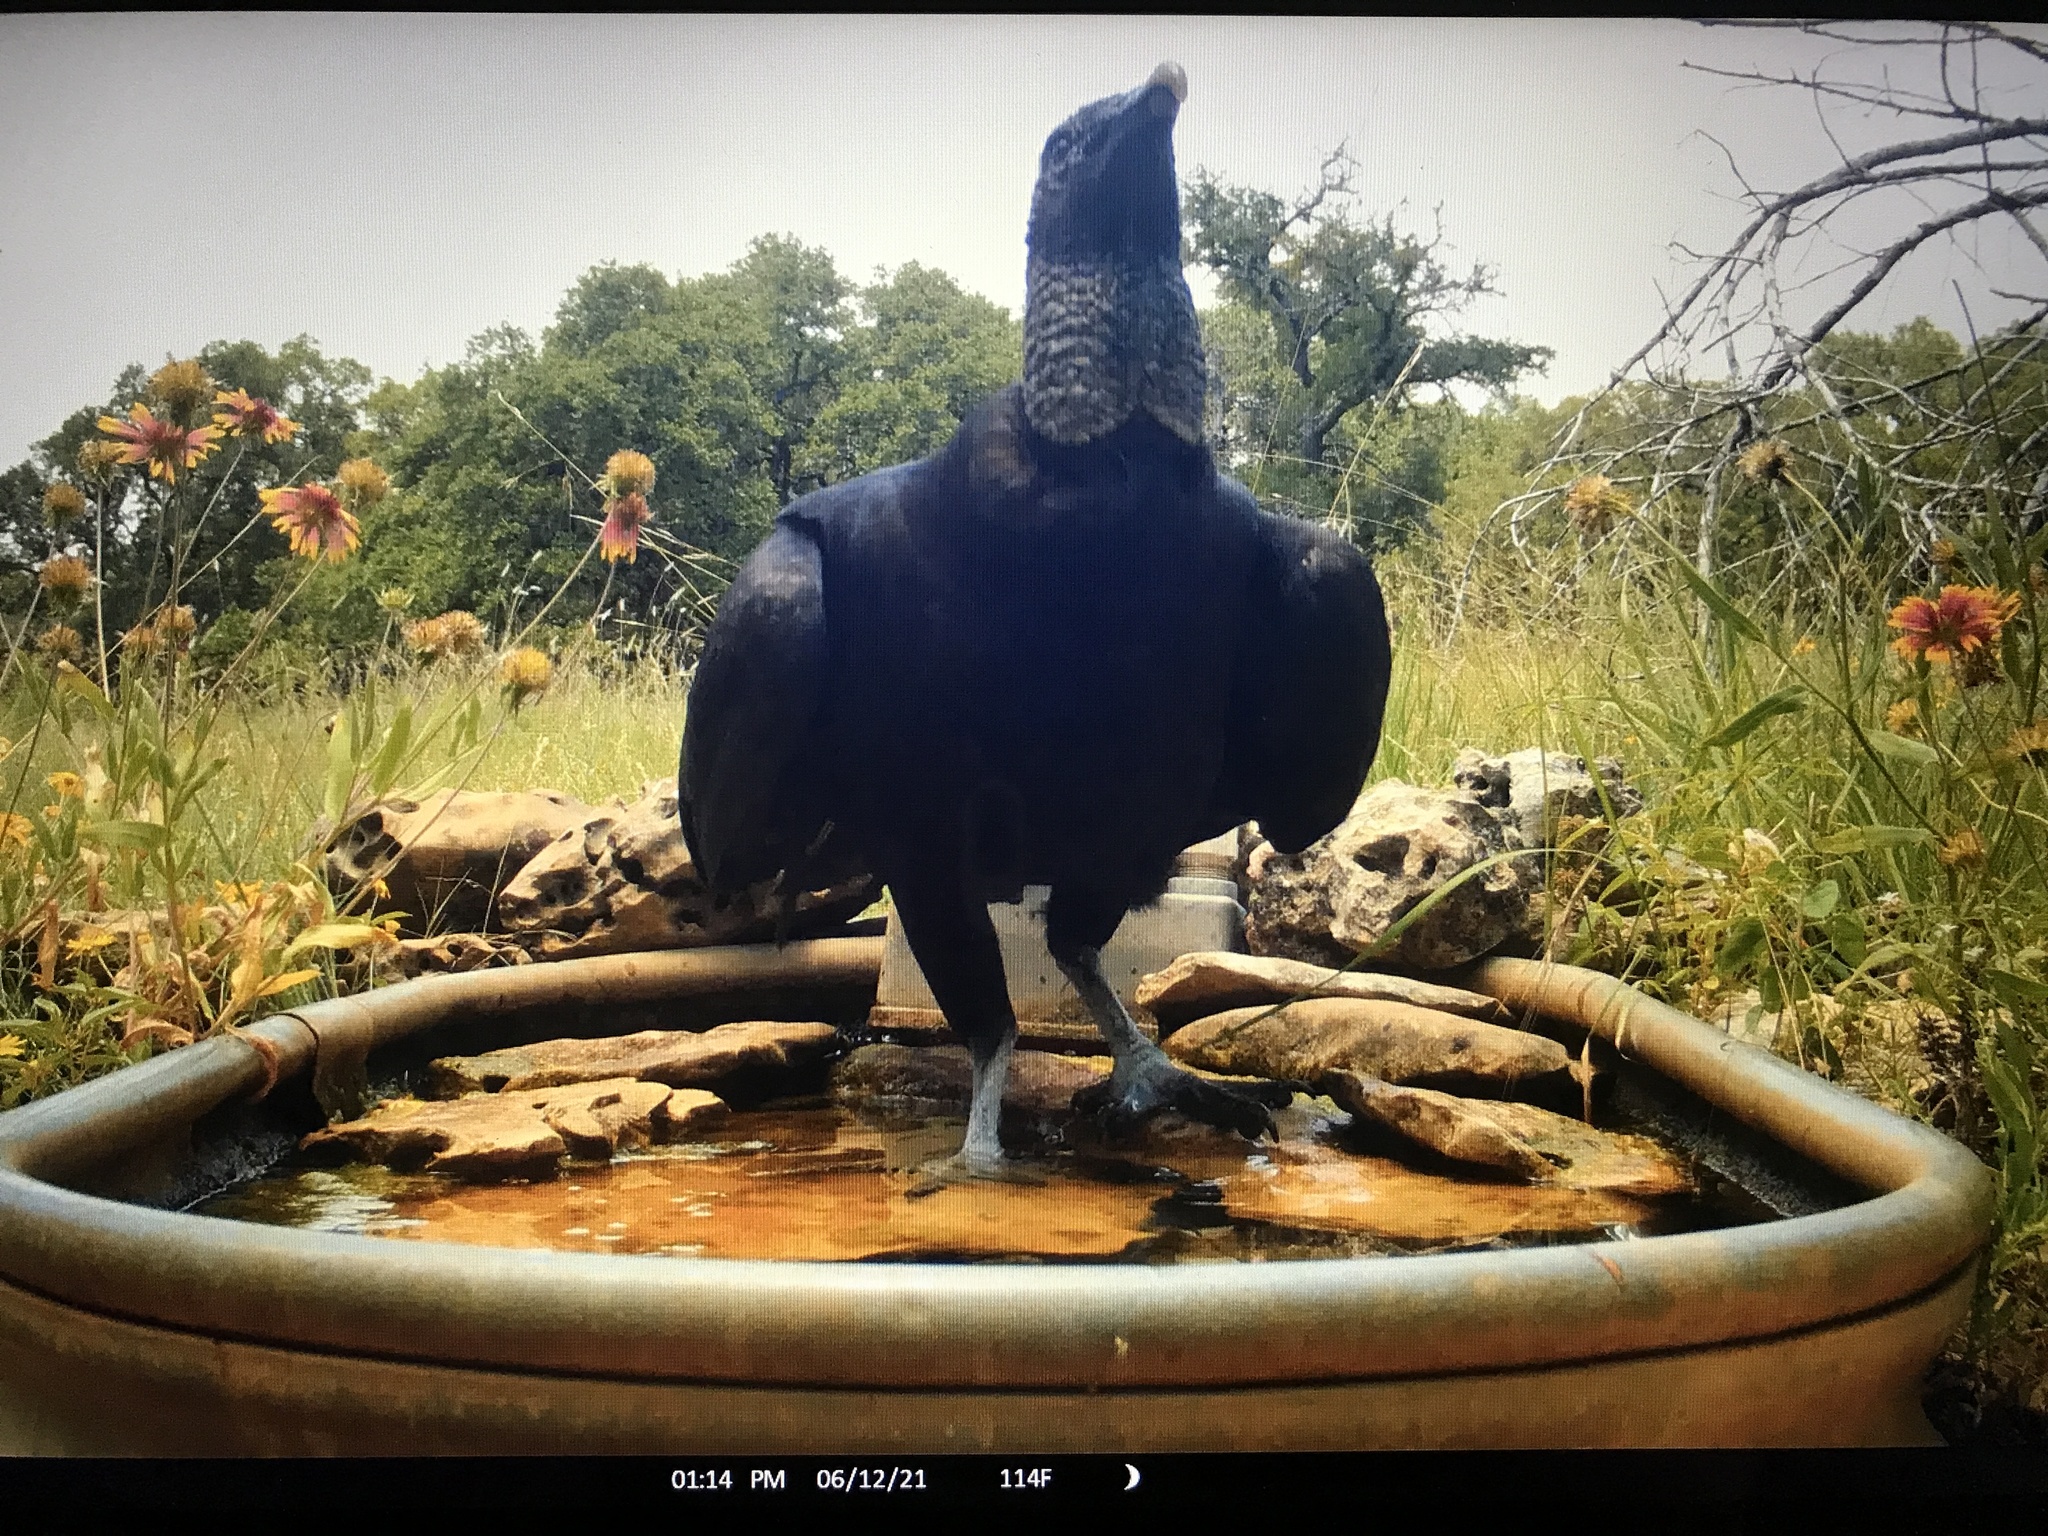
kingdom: Animalia
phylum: Chordata
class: Aves
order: Accipitriformes
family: Cathartidae
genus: Coragyps
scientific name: Coragyps atratus
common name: Black vulture
